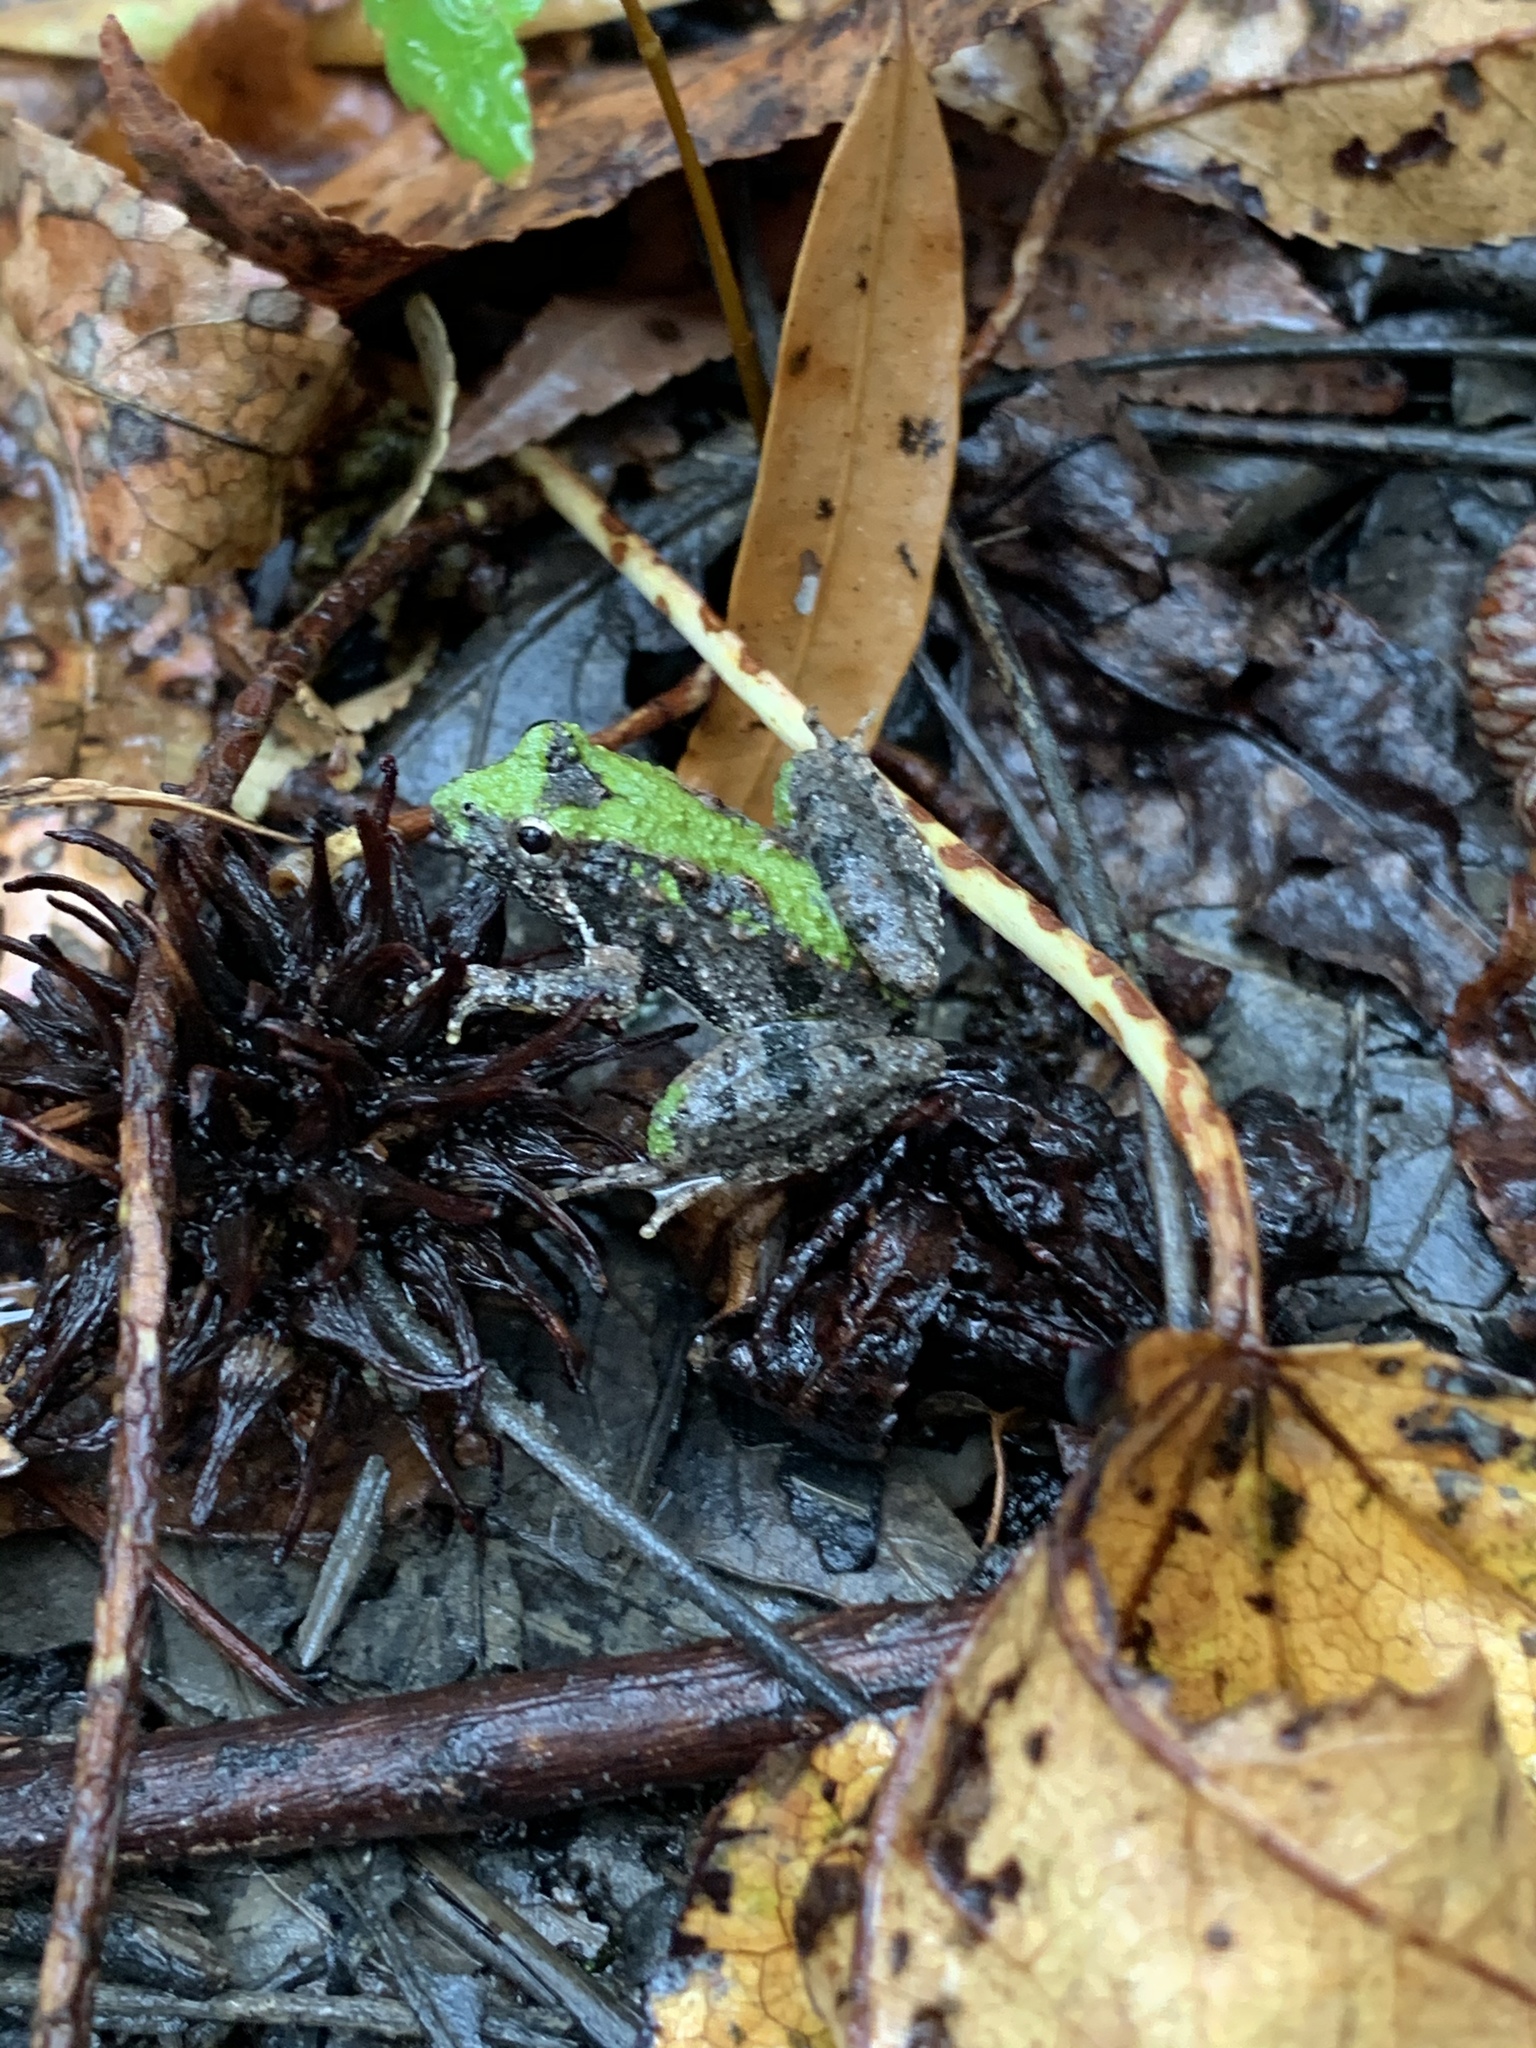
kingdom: Animalia
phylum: Chordata
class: Amphibia
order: Anura
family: Hylidae
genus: Acris
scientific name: Acris crepitans
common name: Northern cricket frog
